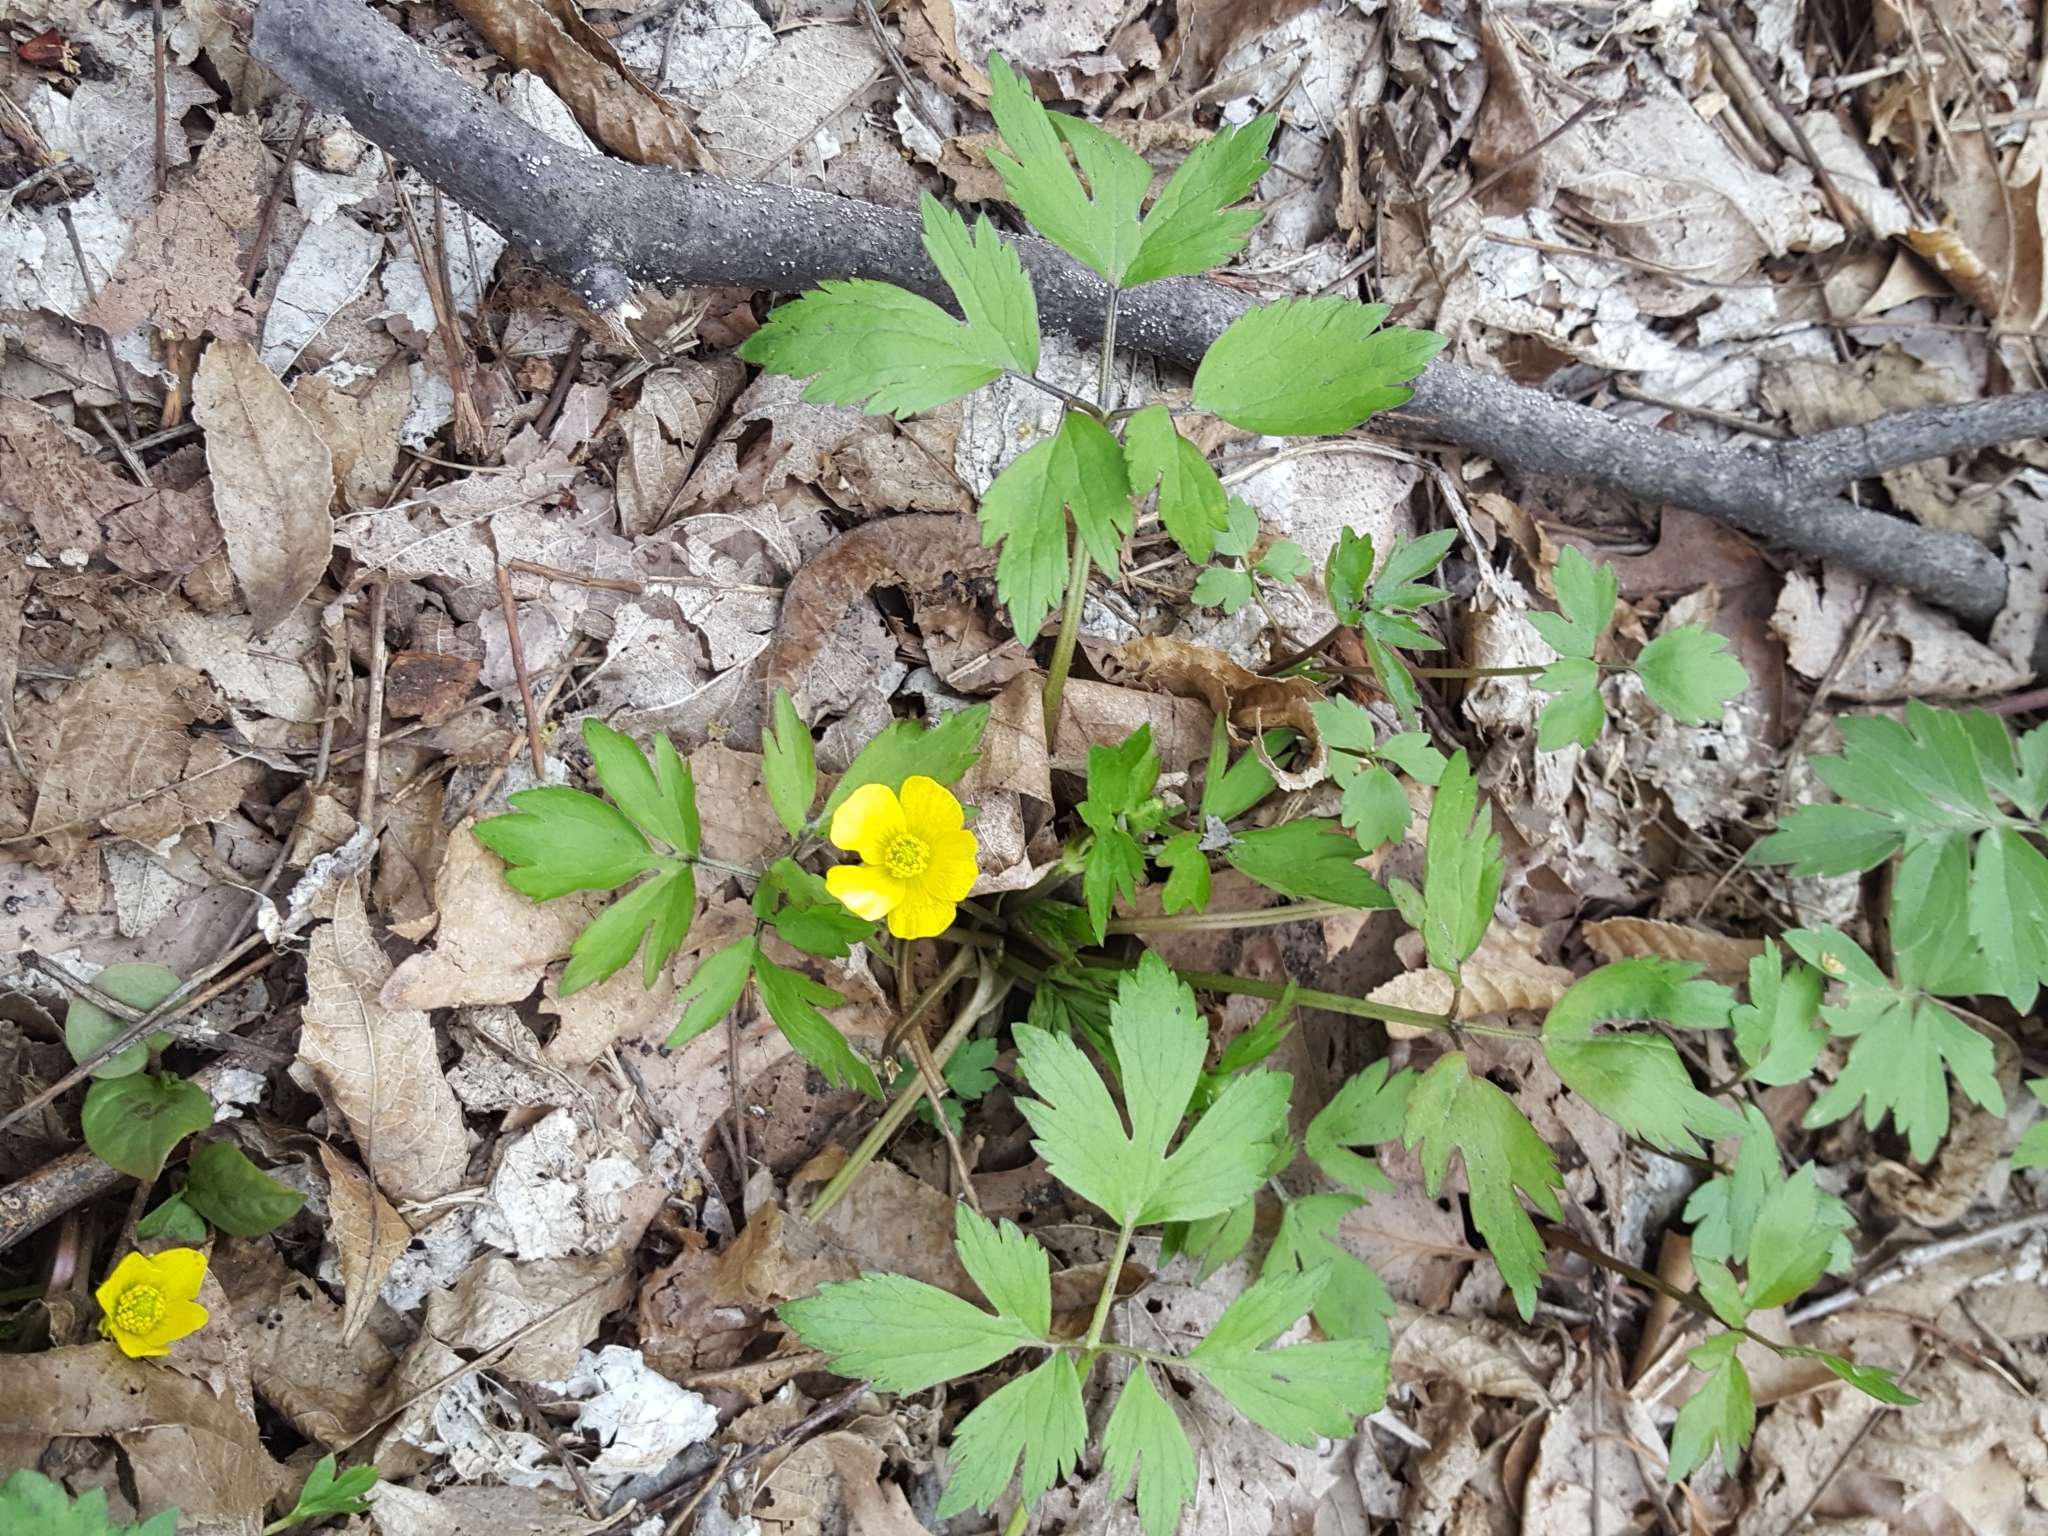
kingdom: Plantae
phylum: Tracheophyta
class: Magnoliopsida
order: Ranunculales
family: Ranunculaceae
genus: Ranunculus
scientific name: Ranunculus hispidus
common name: Bristly buttercup
